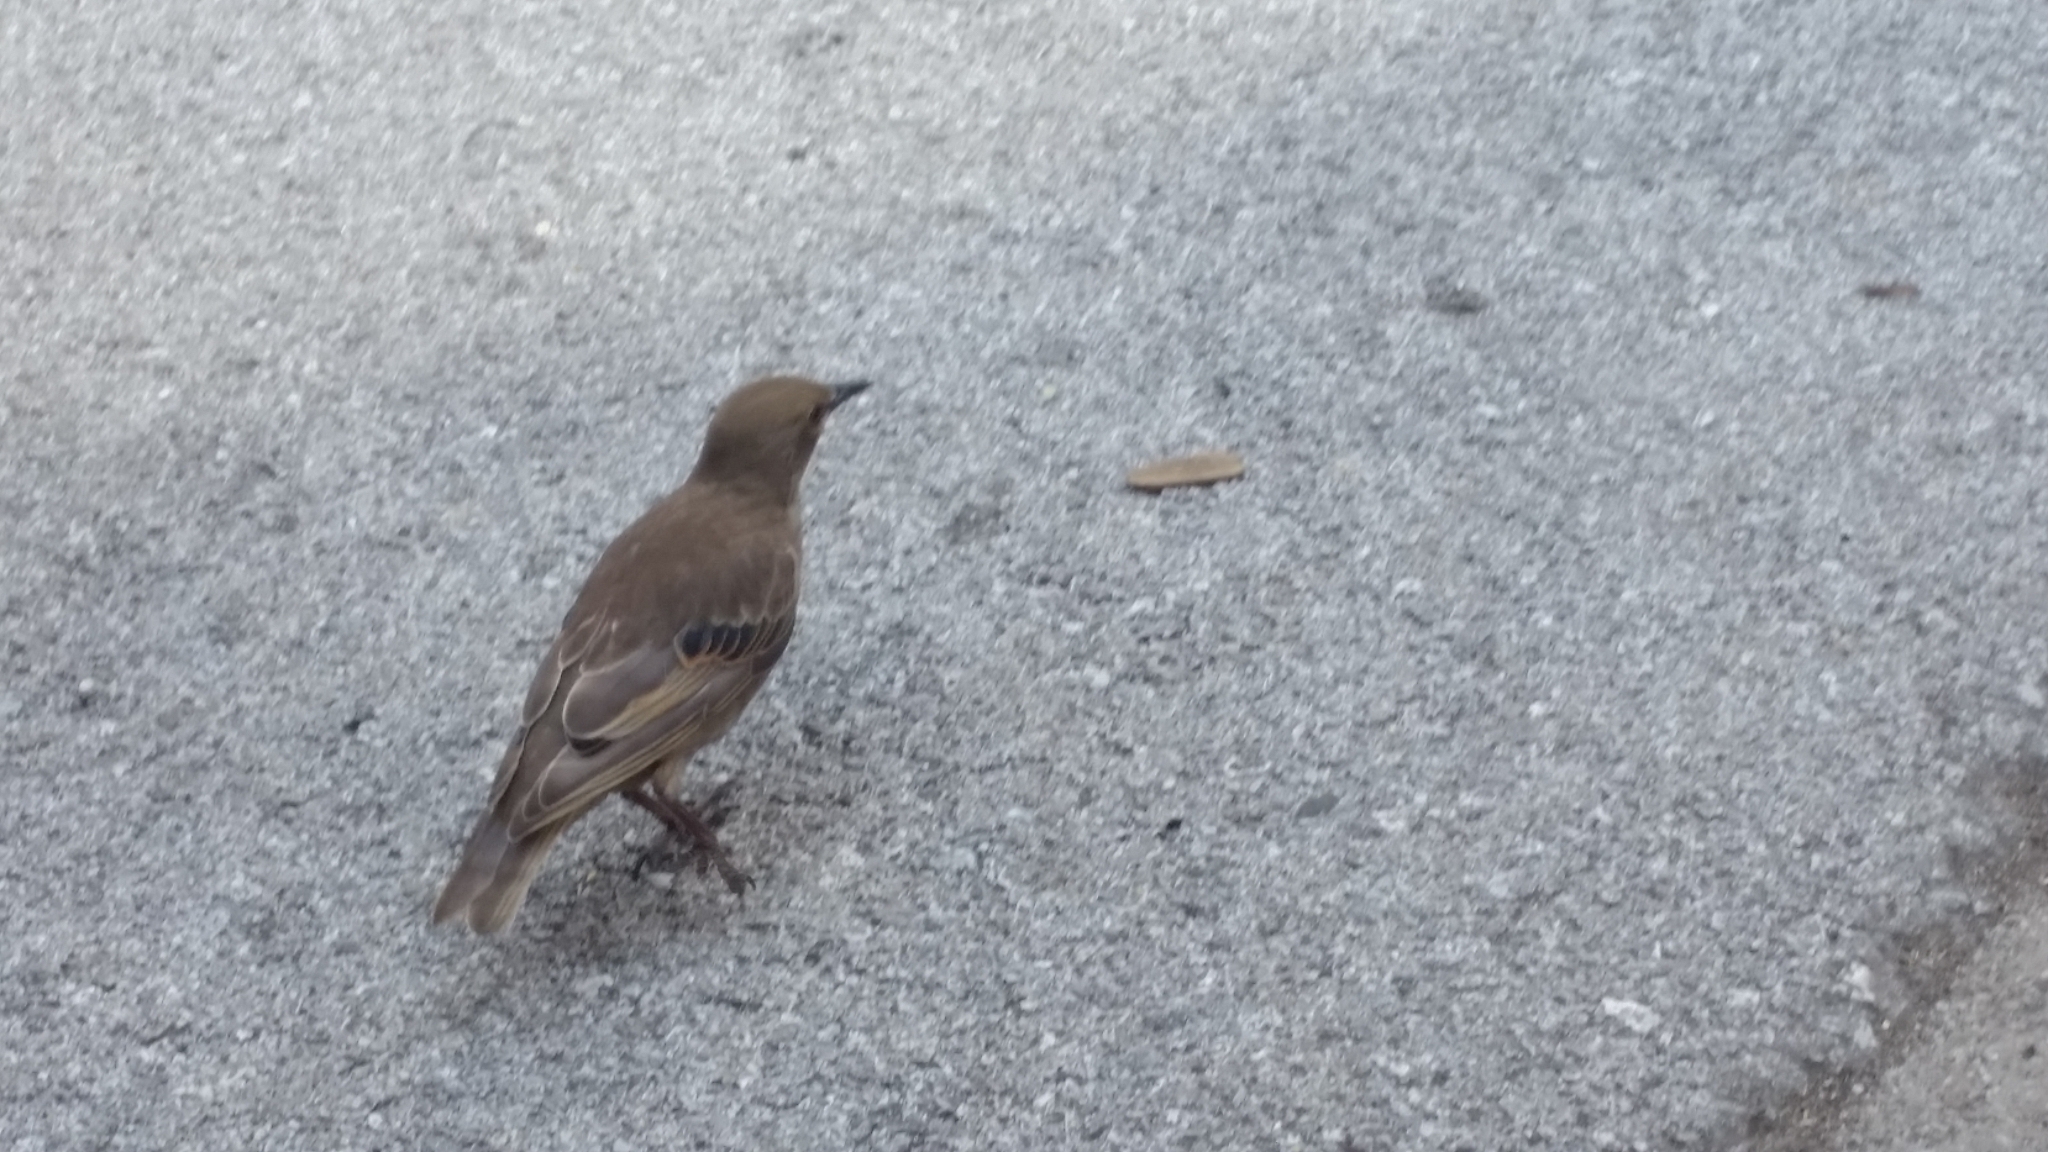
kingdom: Animalia
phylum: Chordata
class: Aves
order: Passeriformes
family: Sturnidae
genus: Sturnus
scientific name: Sturnus vulgaris
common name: Common starling
